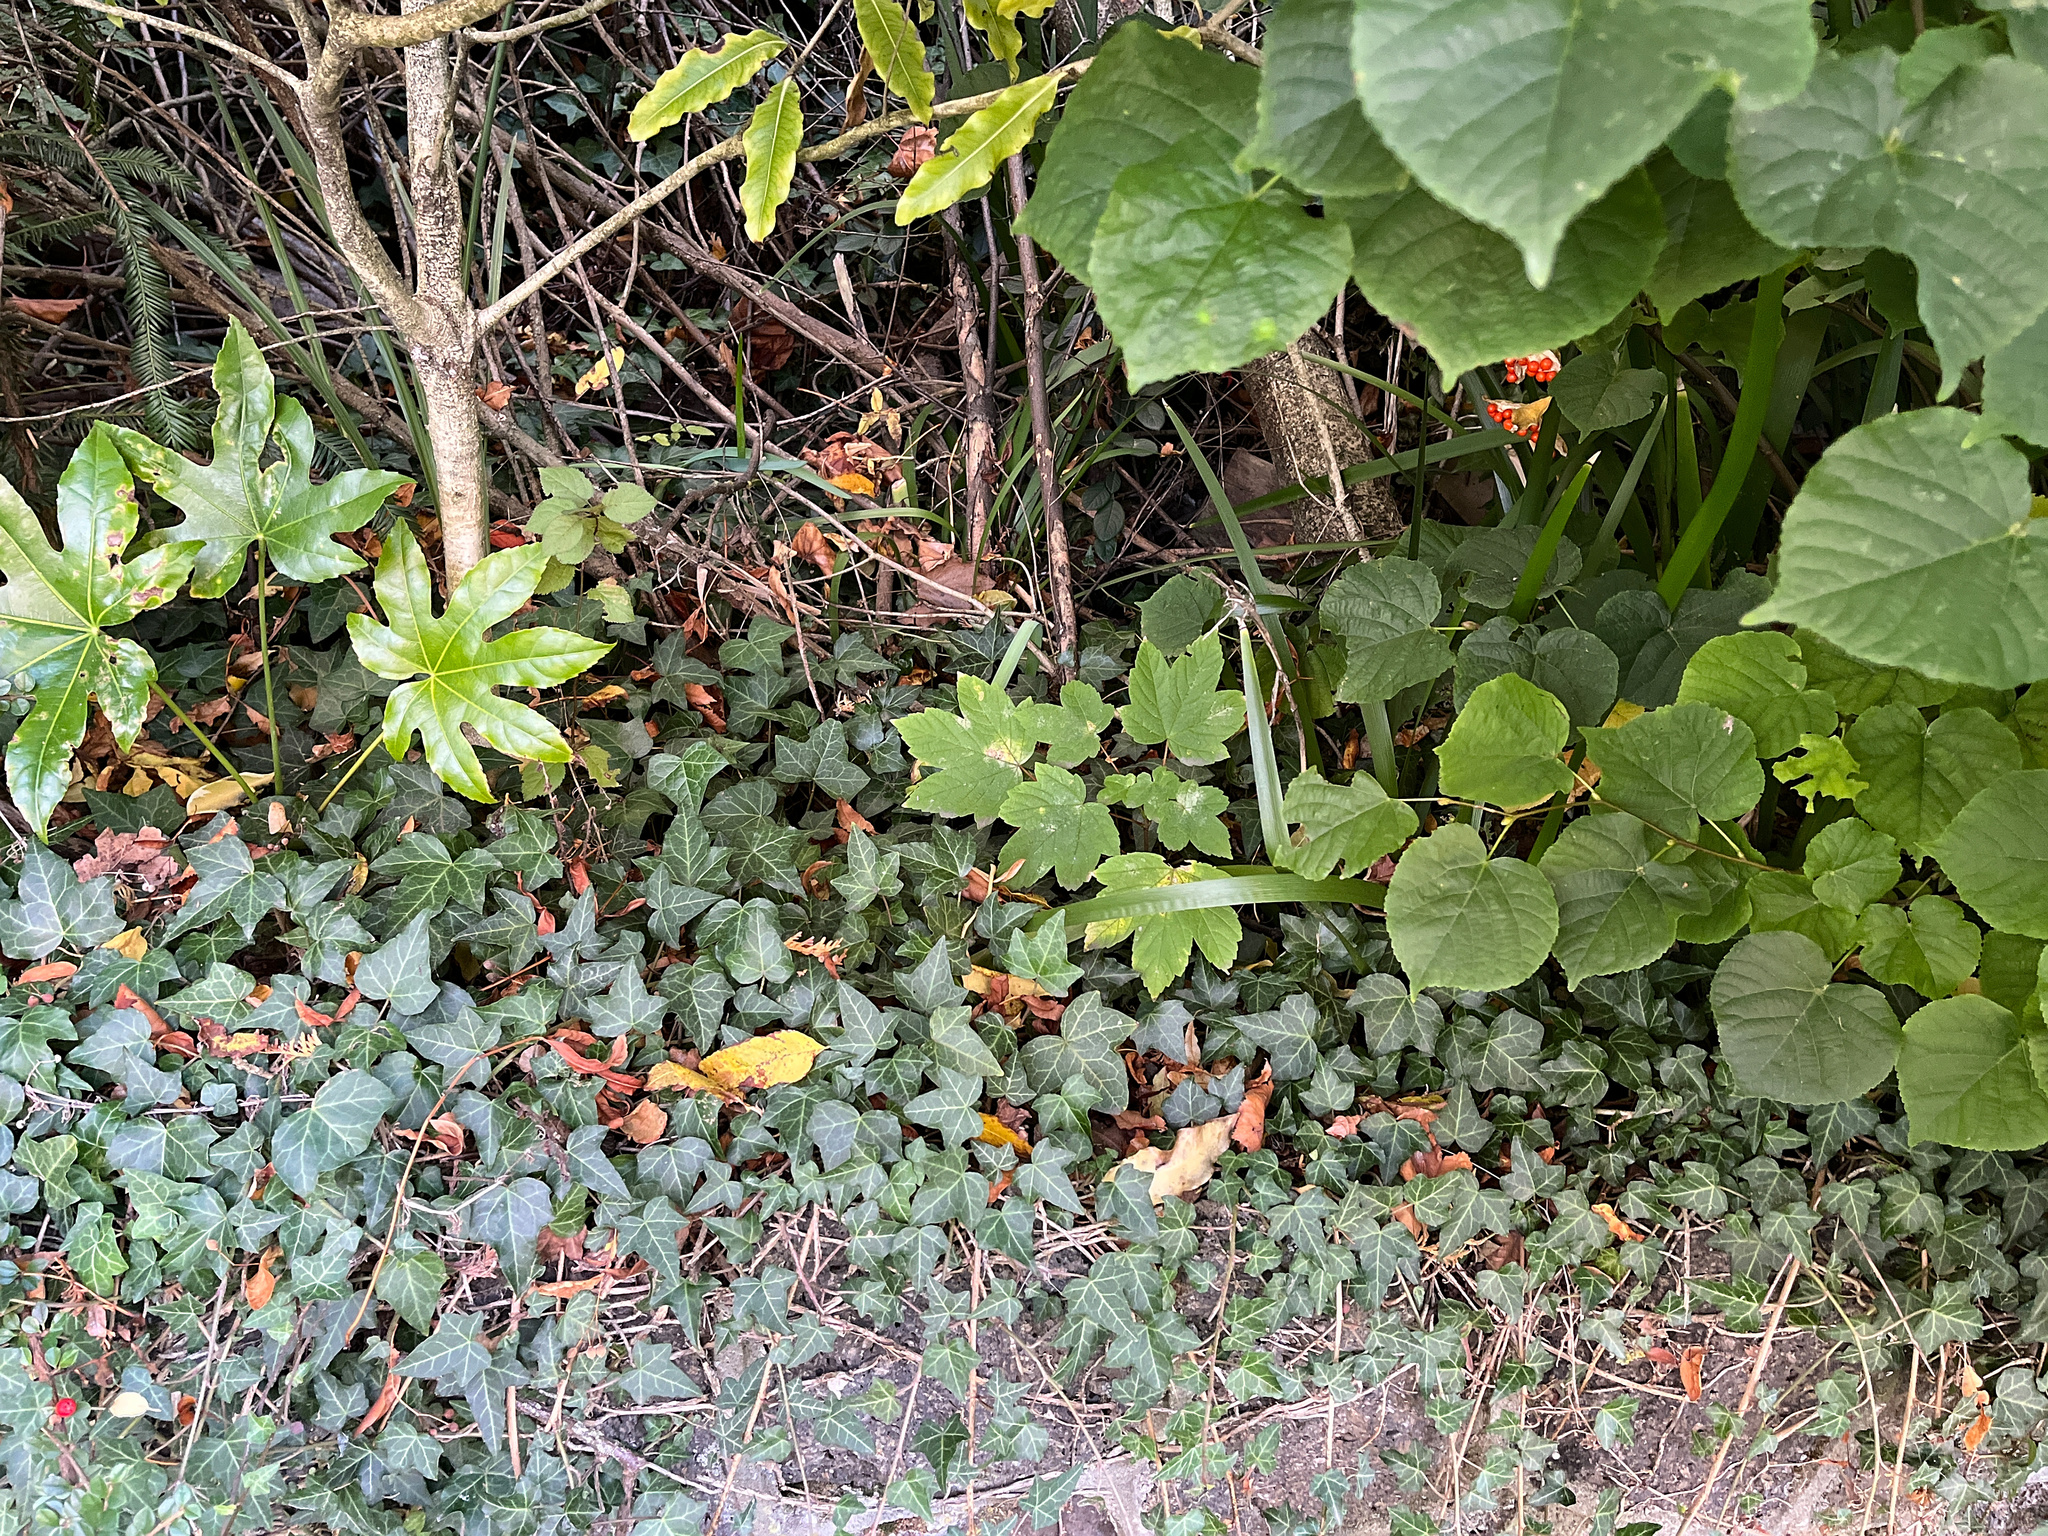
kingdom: Plantae
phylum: Tracheophyta
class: Magnoliopsida
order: Sapindales
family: Sapindaceae
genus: Acer
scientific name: Acer pseudoplatanus
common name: Sycamore
